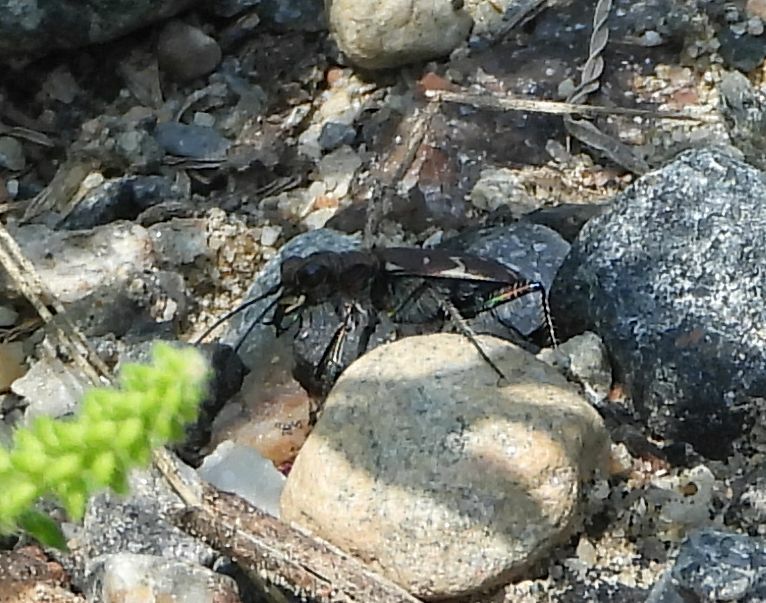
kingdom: Animalia
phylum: Arthropoda
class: Insecta
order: Coleoptera
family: Carabidae
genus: Cicindela
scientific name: Cicindela duodecimguttata
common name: Twelve-spotted tiger beetle
